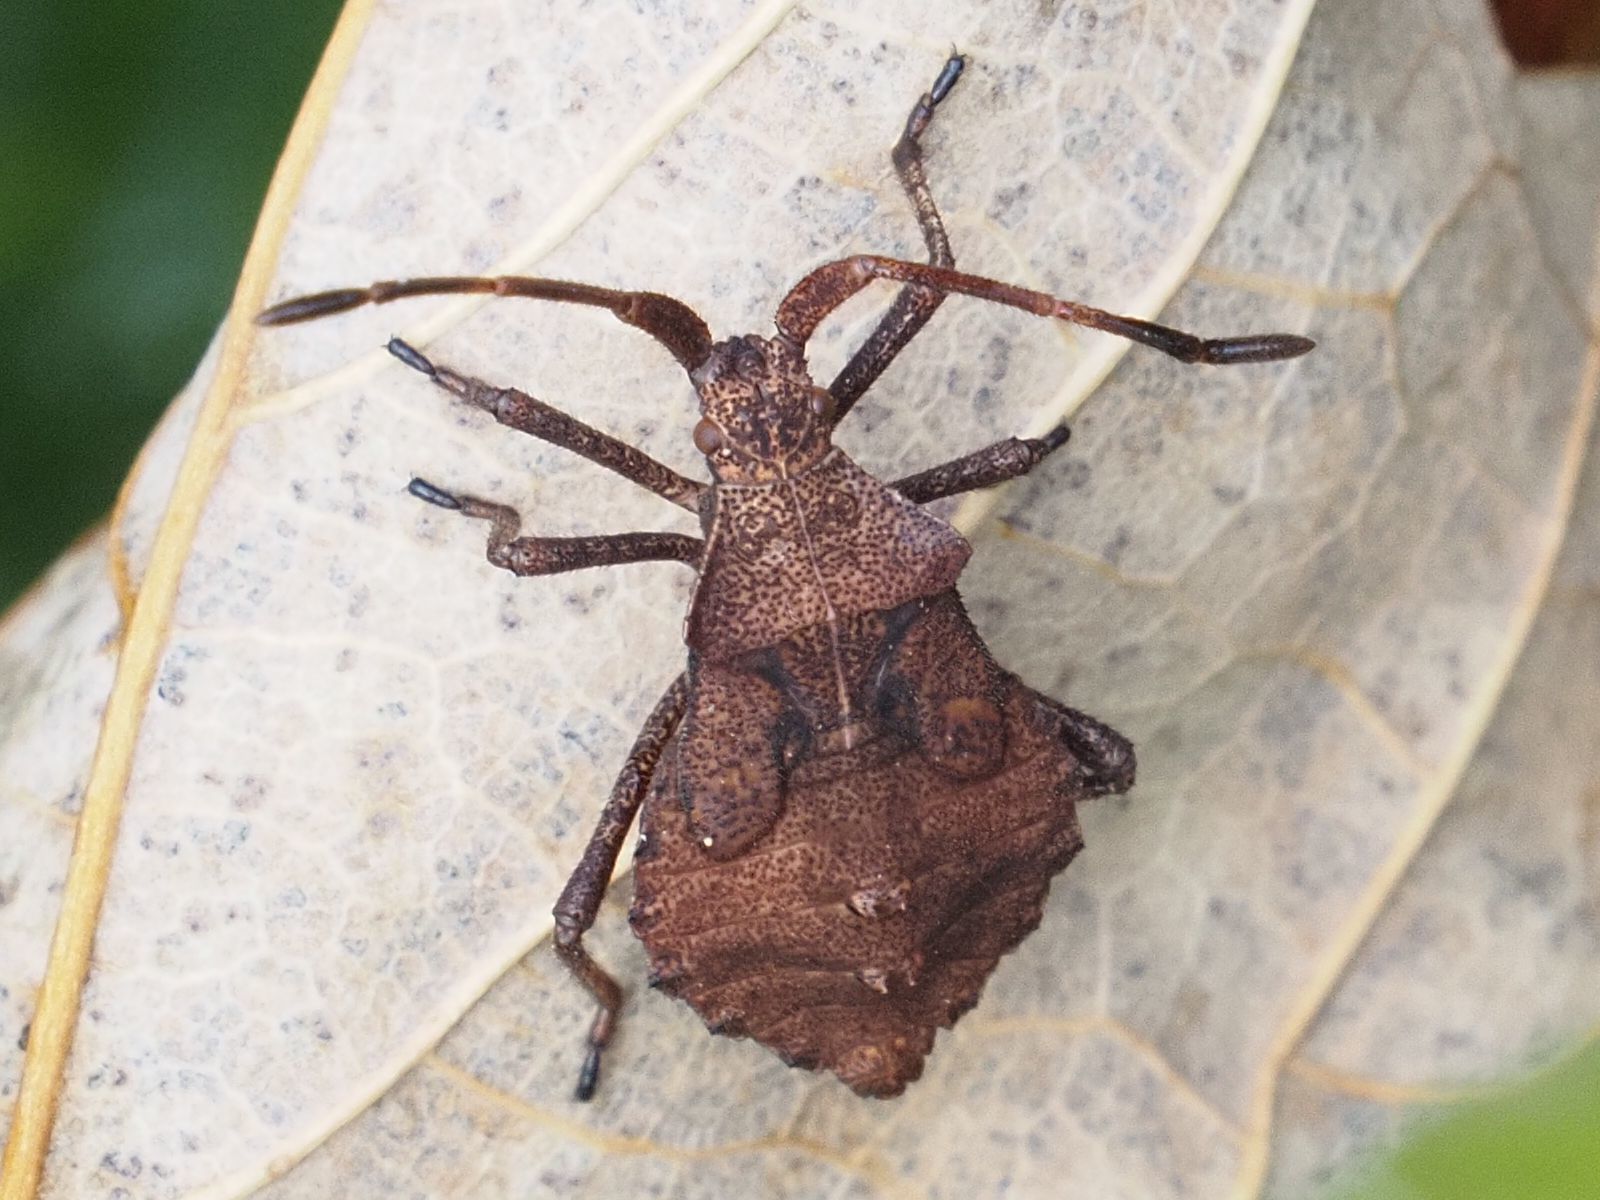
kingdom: Animalia
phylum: Arthropoda
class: Insecta
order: Hemiptera
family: Coreidae
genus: Coreus
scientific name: Coreus marginatus
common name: Dock bug
